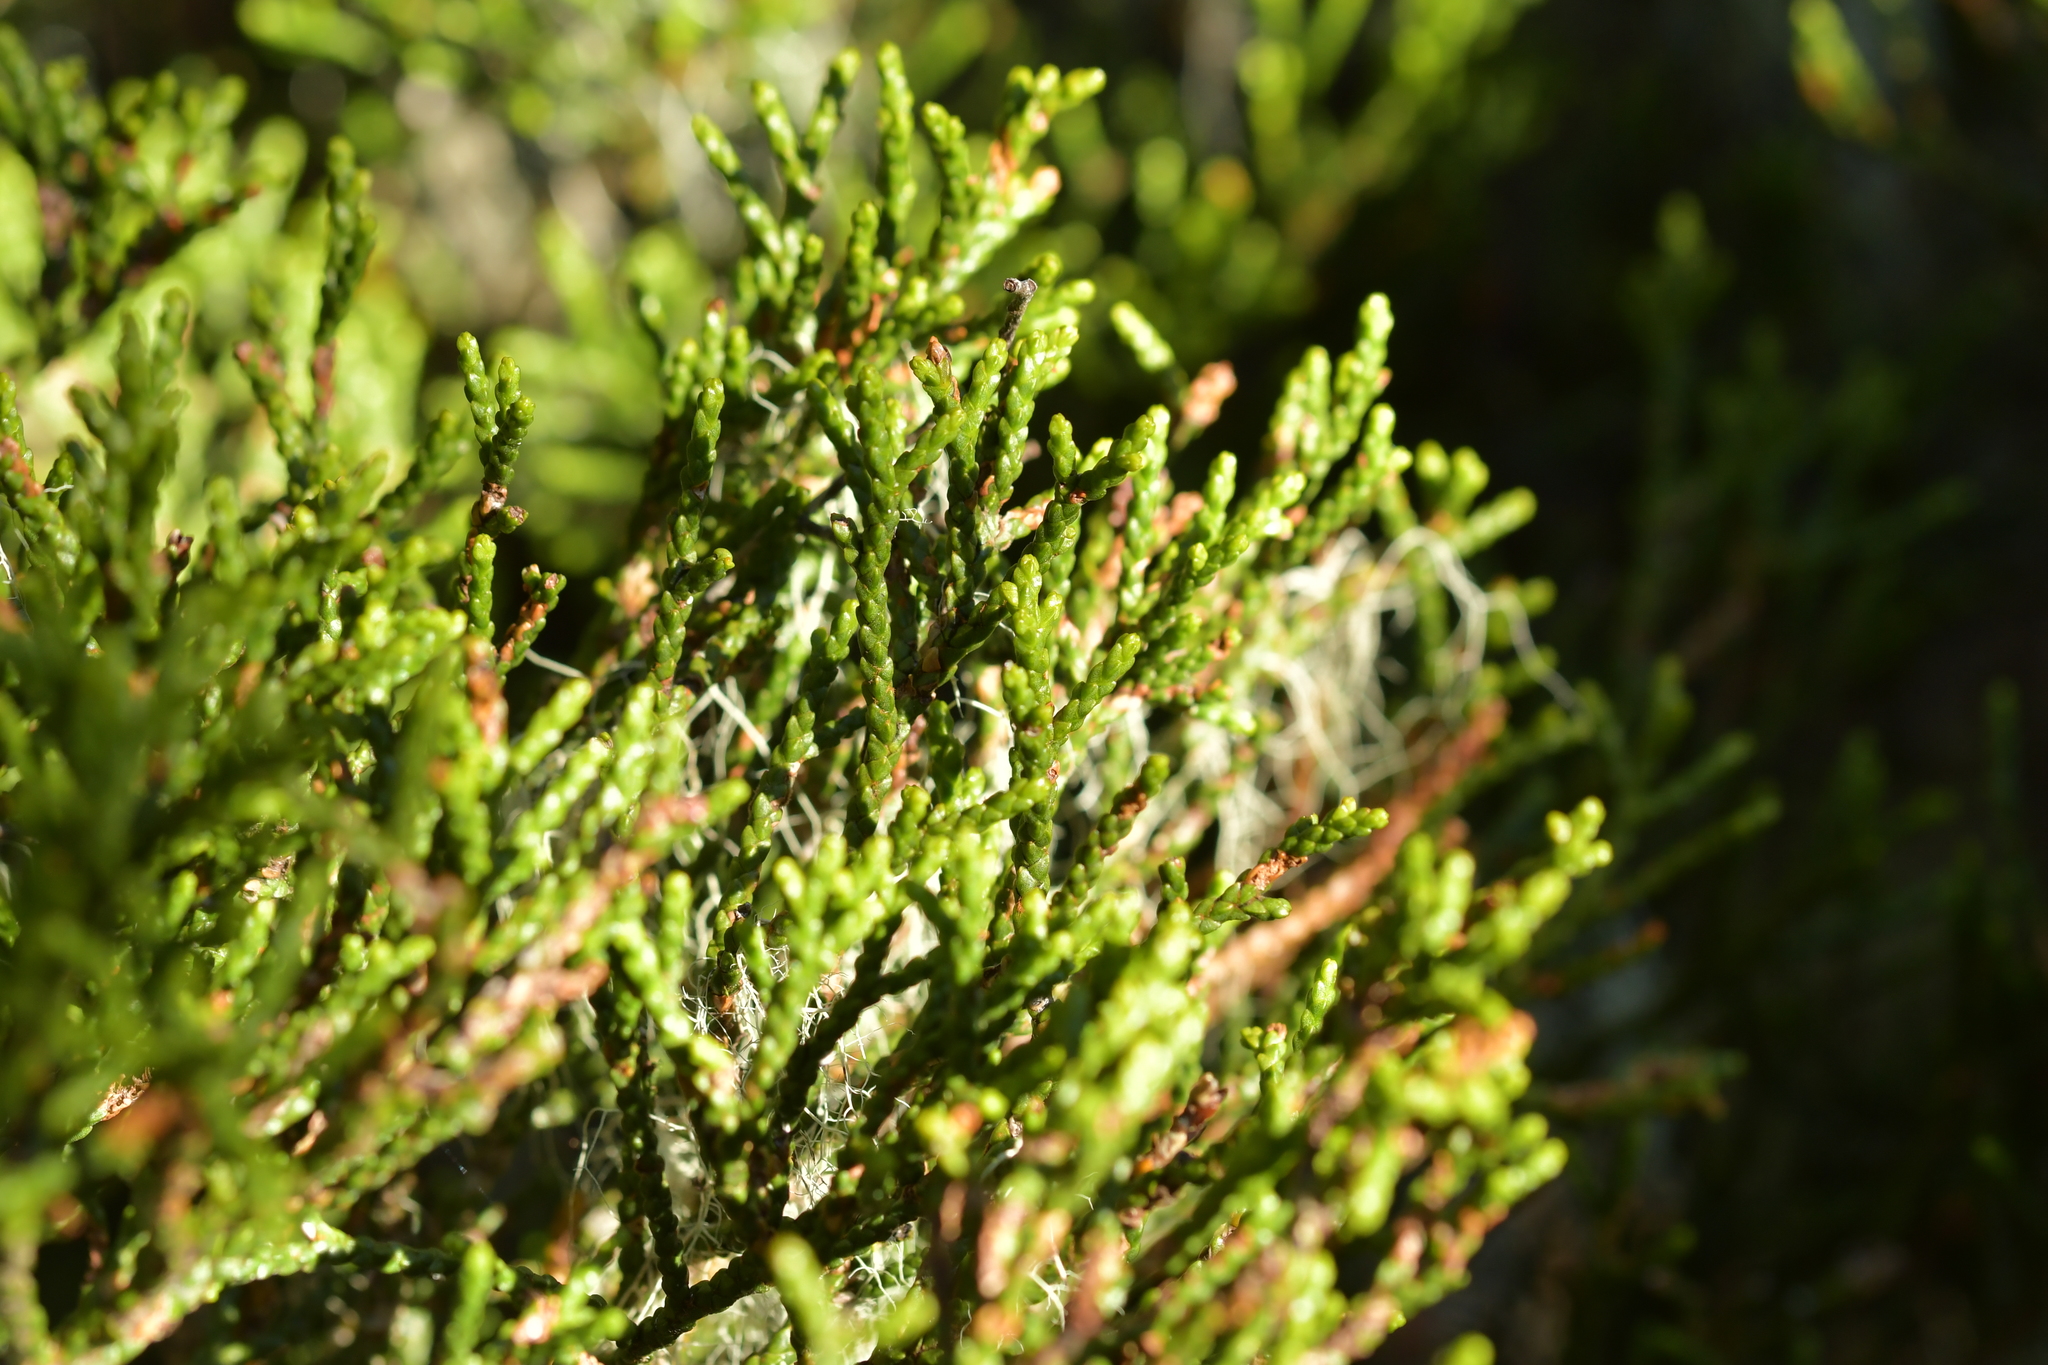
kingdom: Plantae
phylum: Tracheophyta
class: Pinopsida
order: Pinales
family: Podocarpaceae
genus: Halocarpus
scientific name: Halocarpus bidwillii
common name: Bog pine
